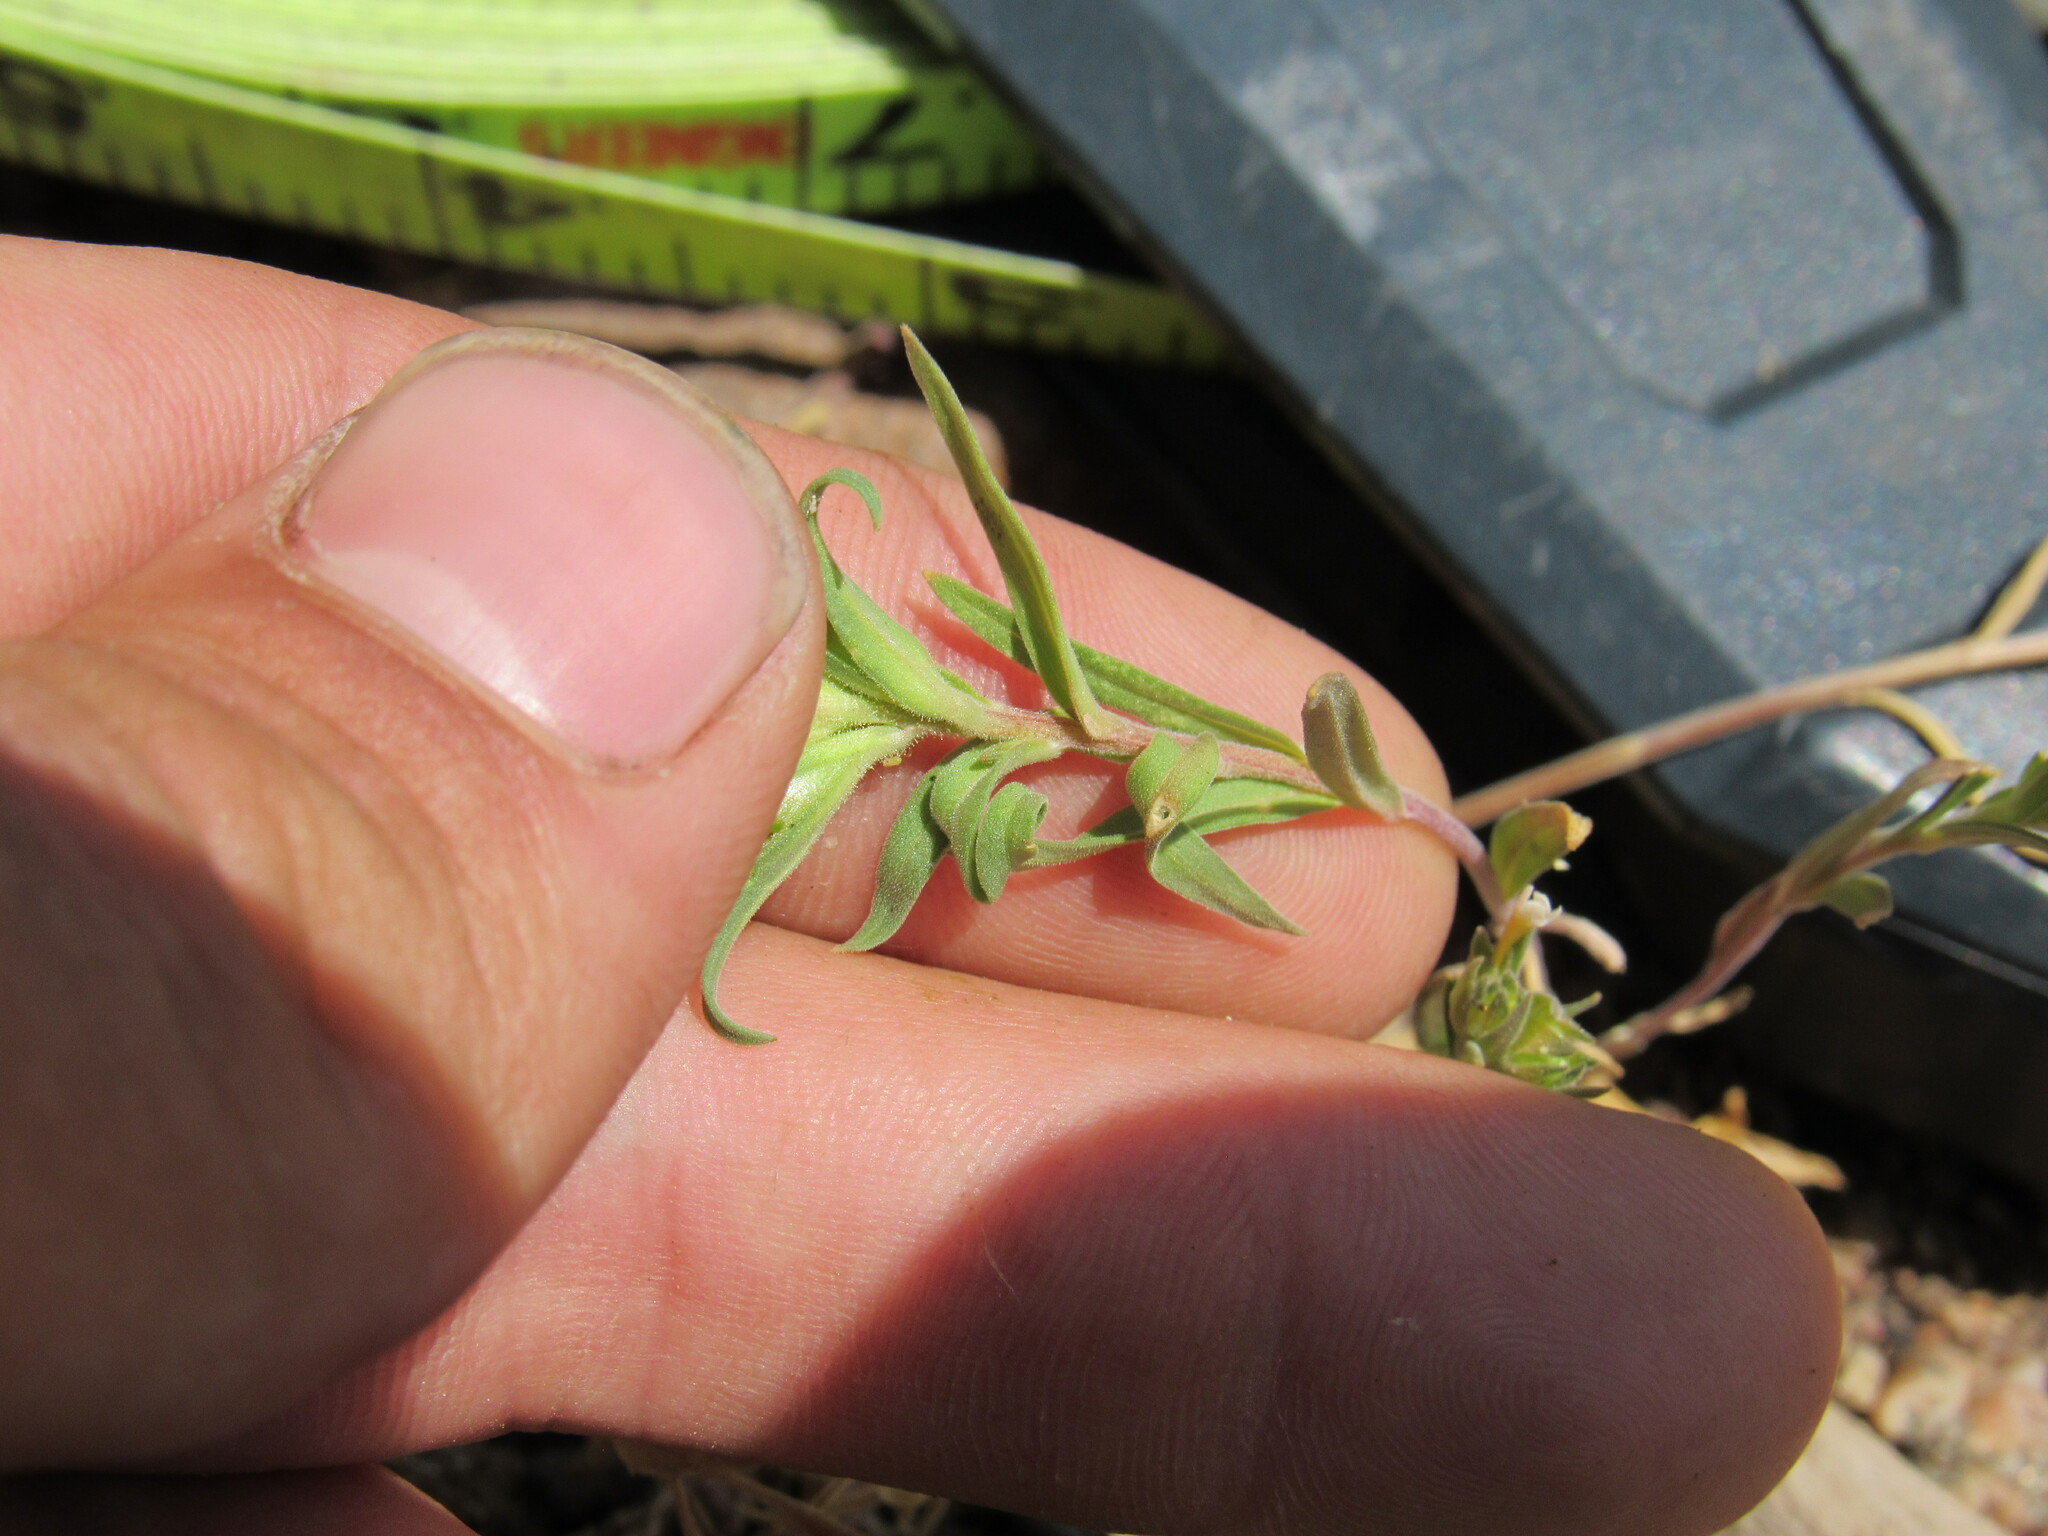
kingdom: Plantae
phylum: Tracheophyta
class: Magnoliopsida
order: Ericales
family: Polemoniaceae
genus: Collomia
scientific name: Collomia linearis
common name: Tiny trumpet
